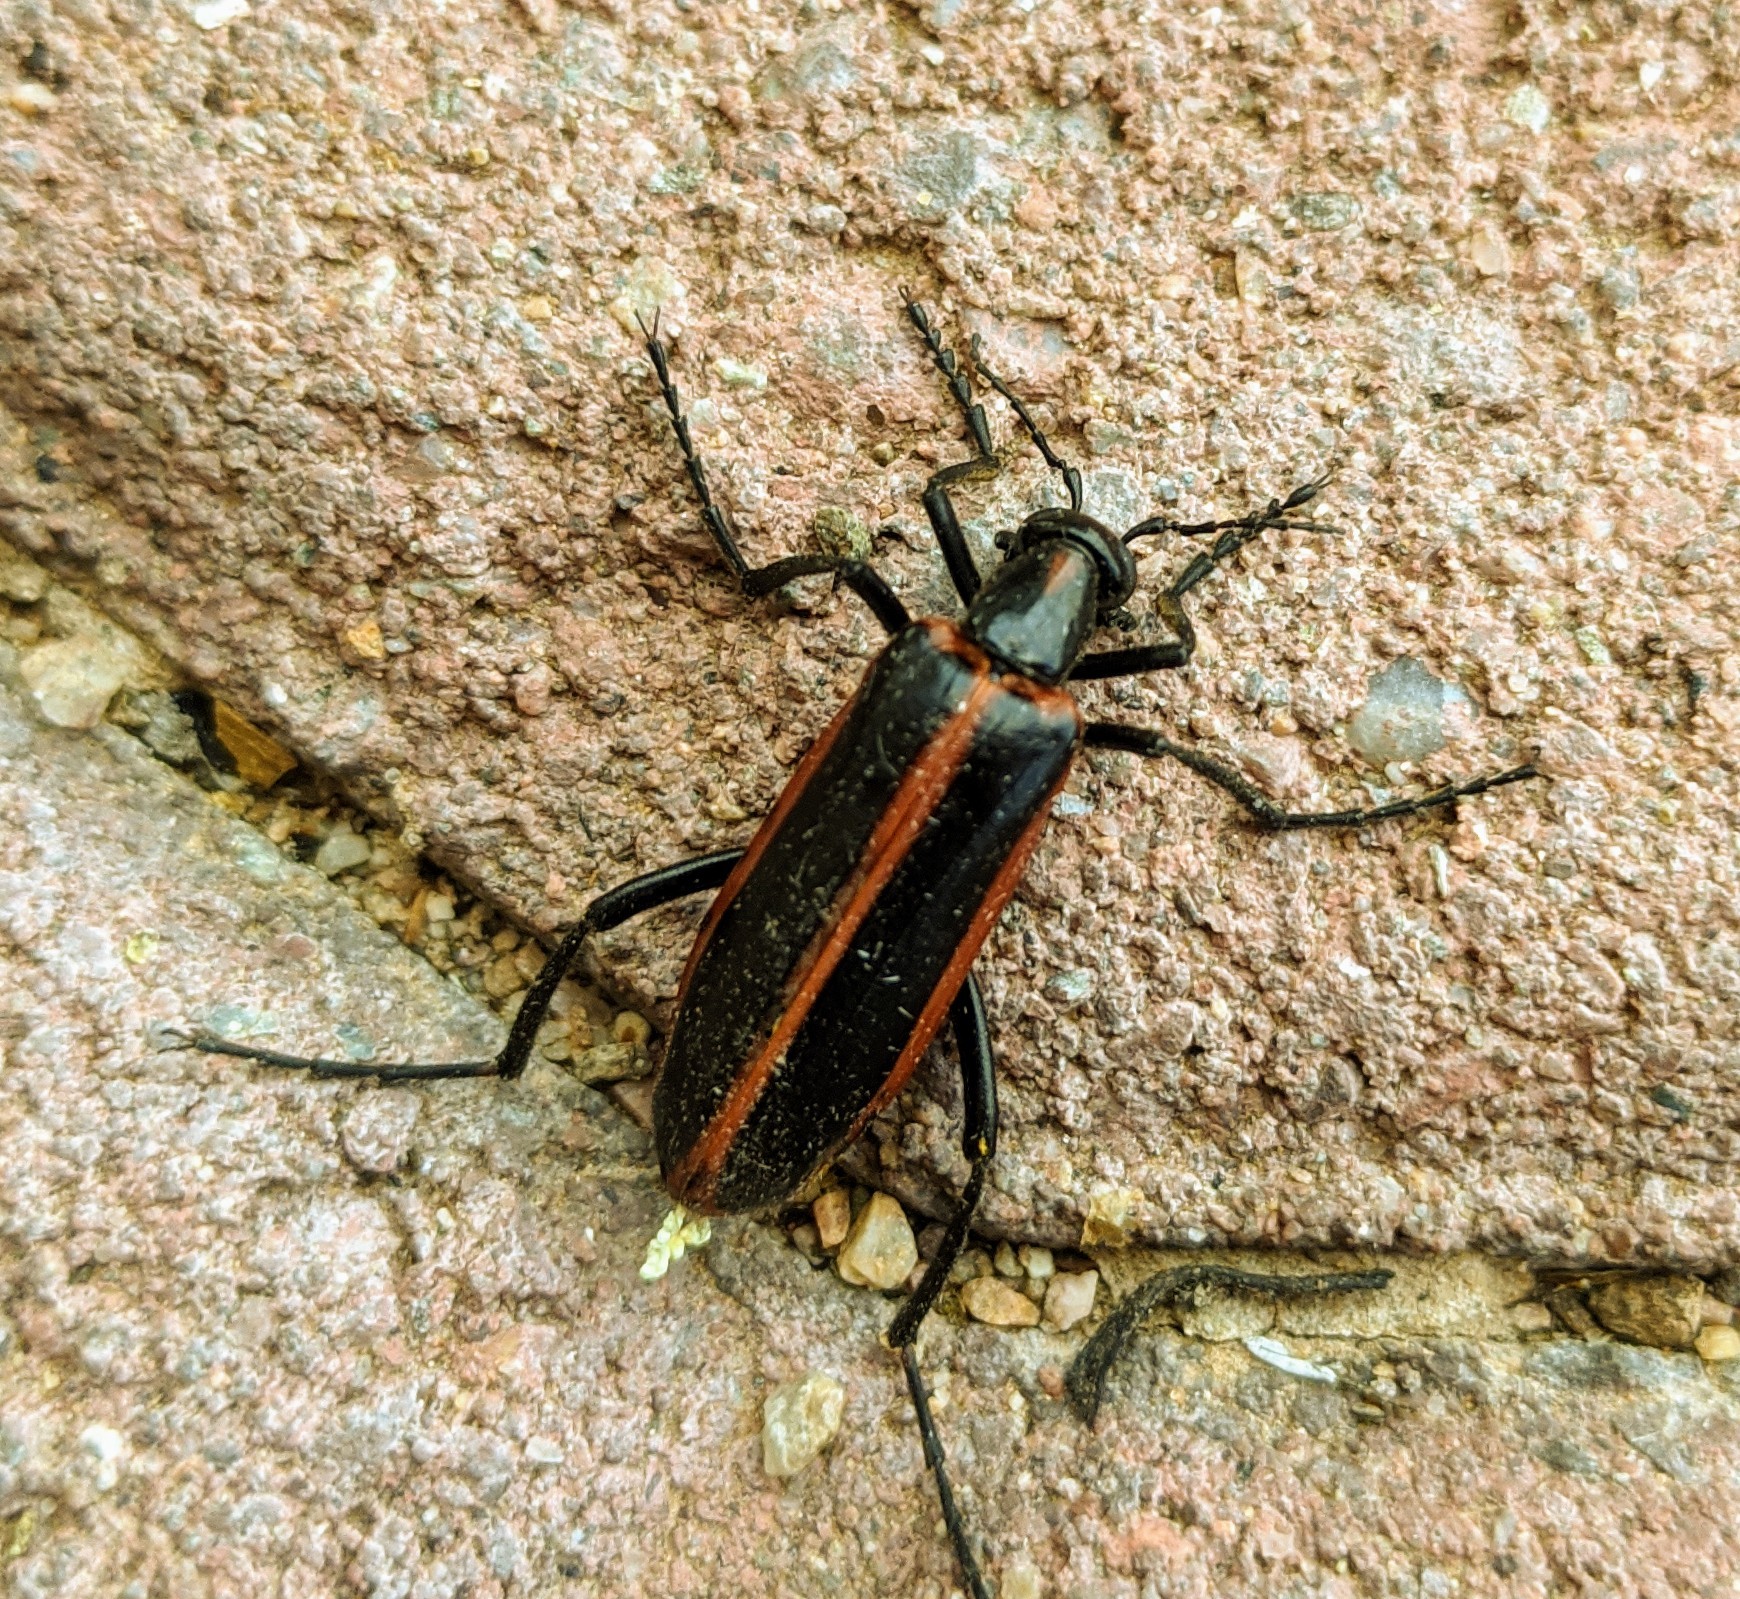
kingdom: Animalia
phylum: Arthropoda
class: Insecta
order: Coleoptera
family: Meloidae
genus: Pyrota
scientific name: Pyrota akhurstiana
